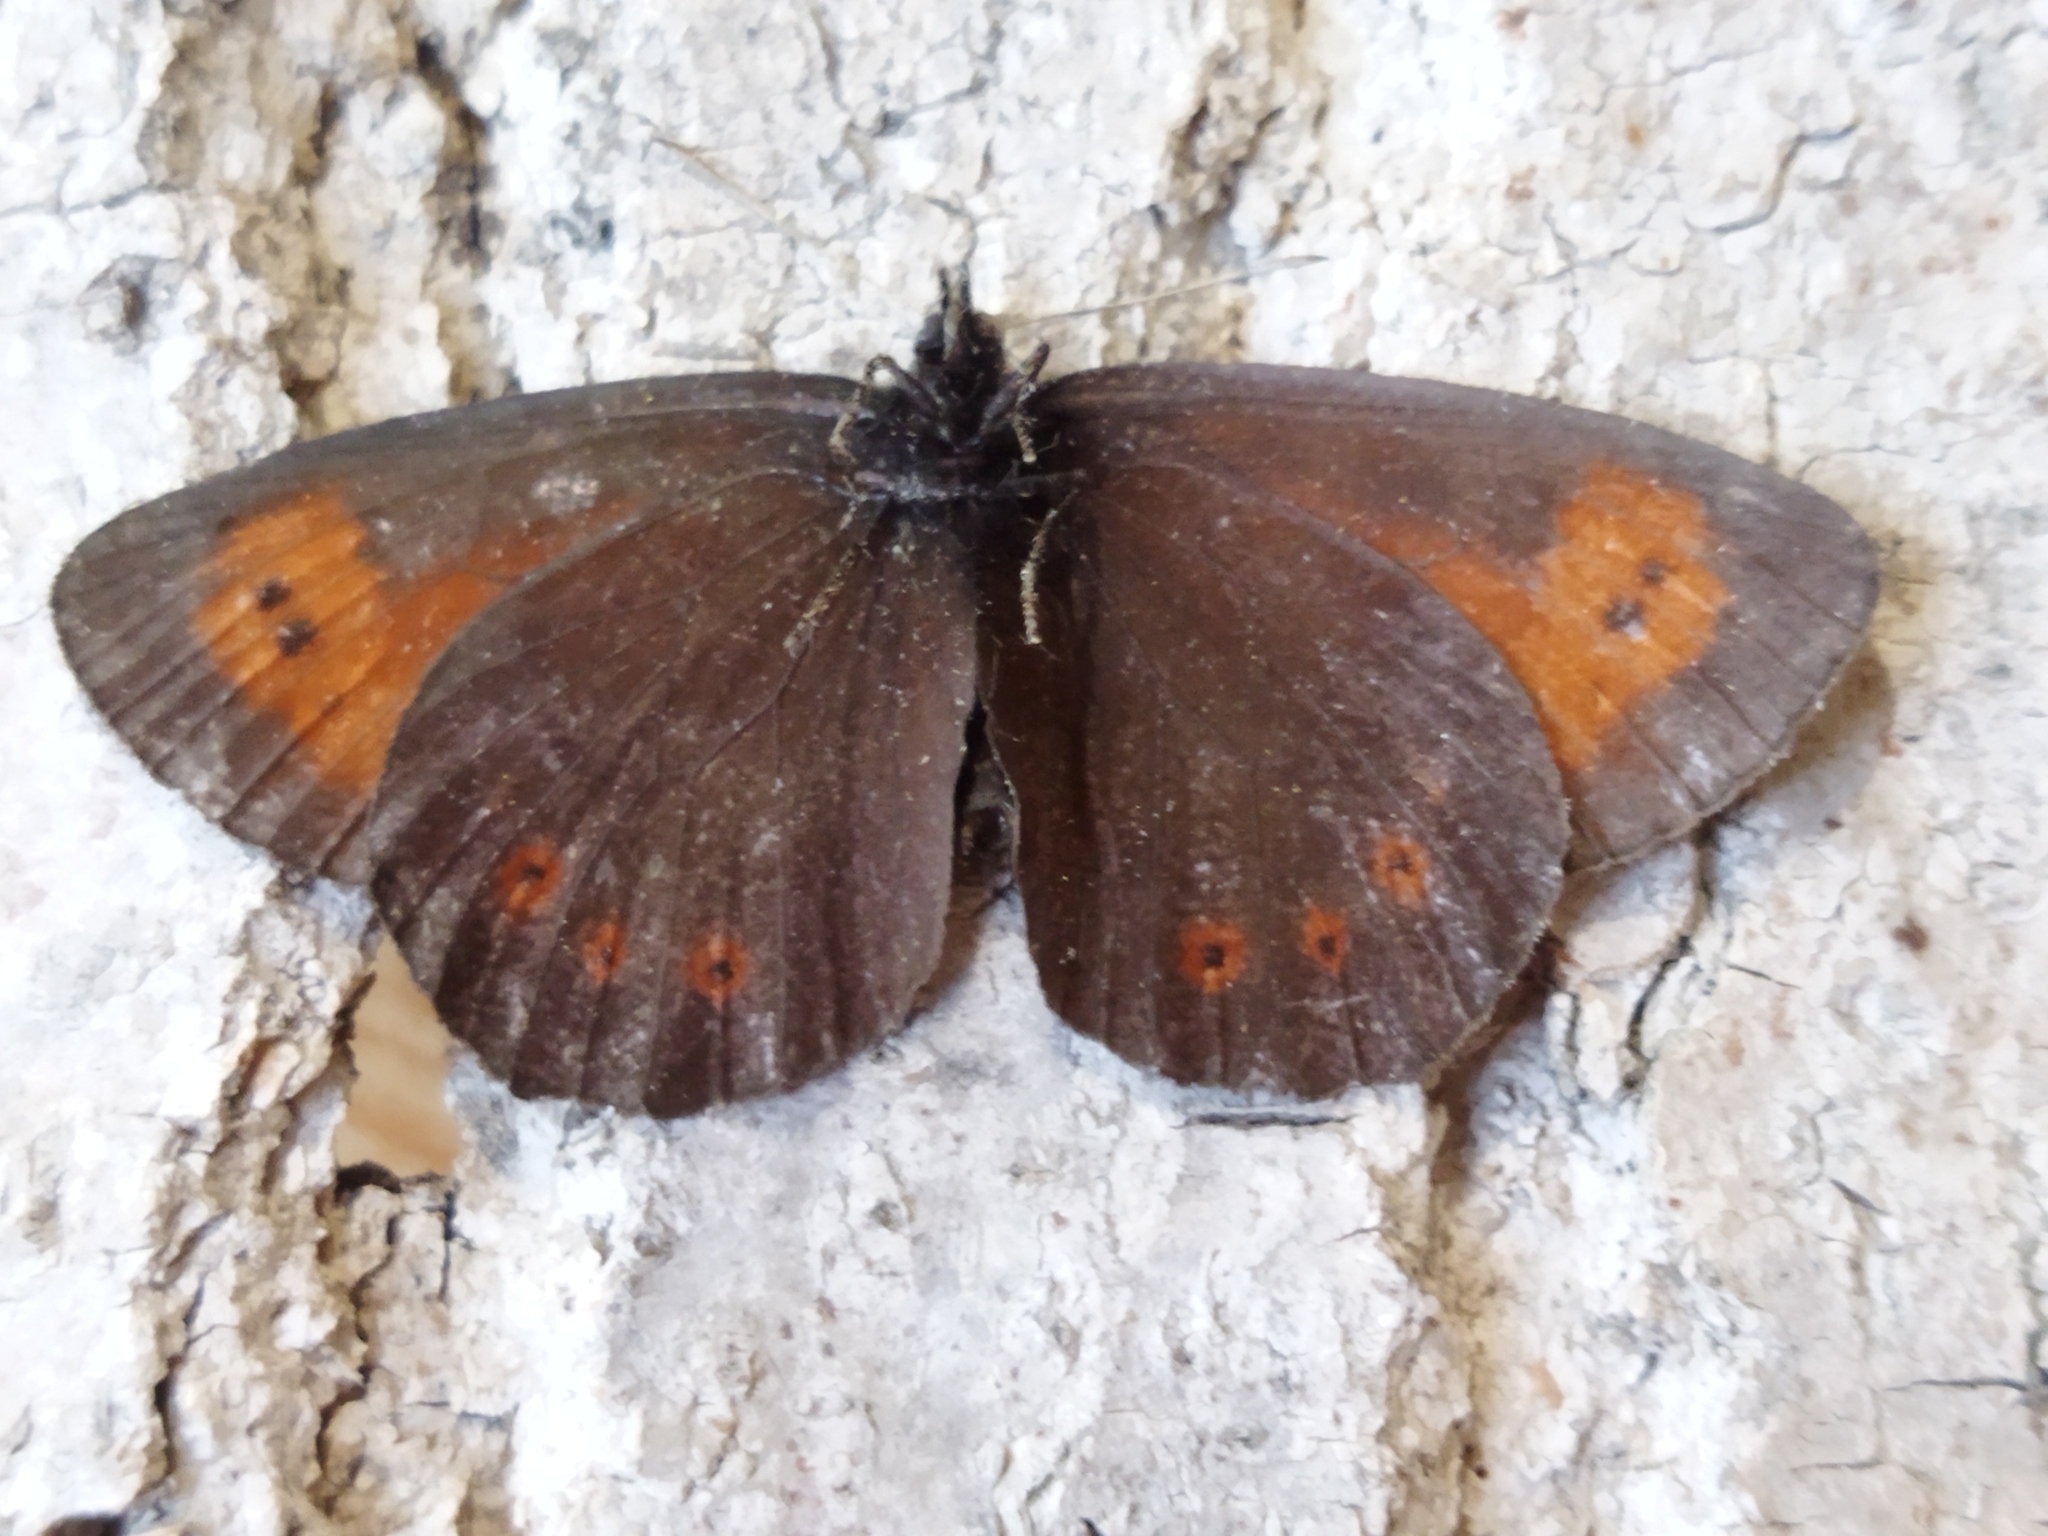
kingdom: Animalia
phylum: Arthropoda
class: Insecta
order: Lepidoptera
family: Nymphalidae
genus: Erebia
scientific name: Erebia euryale
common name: Large ringlet
